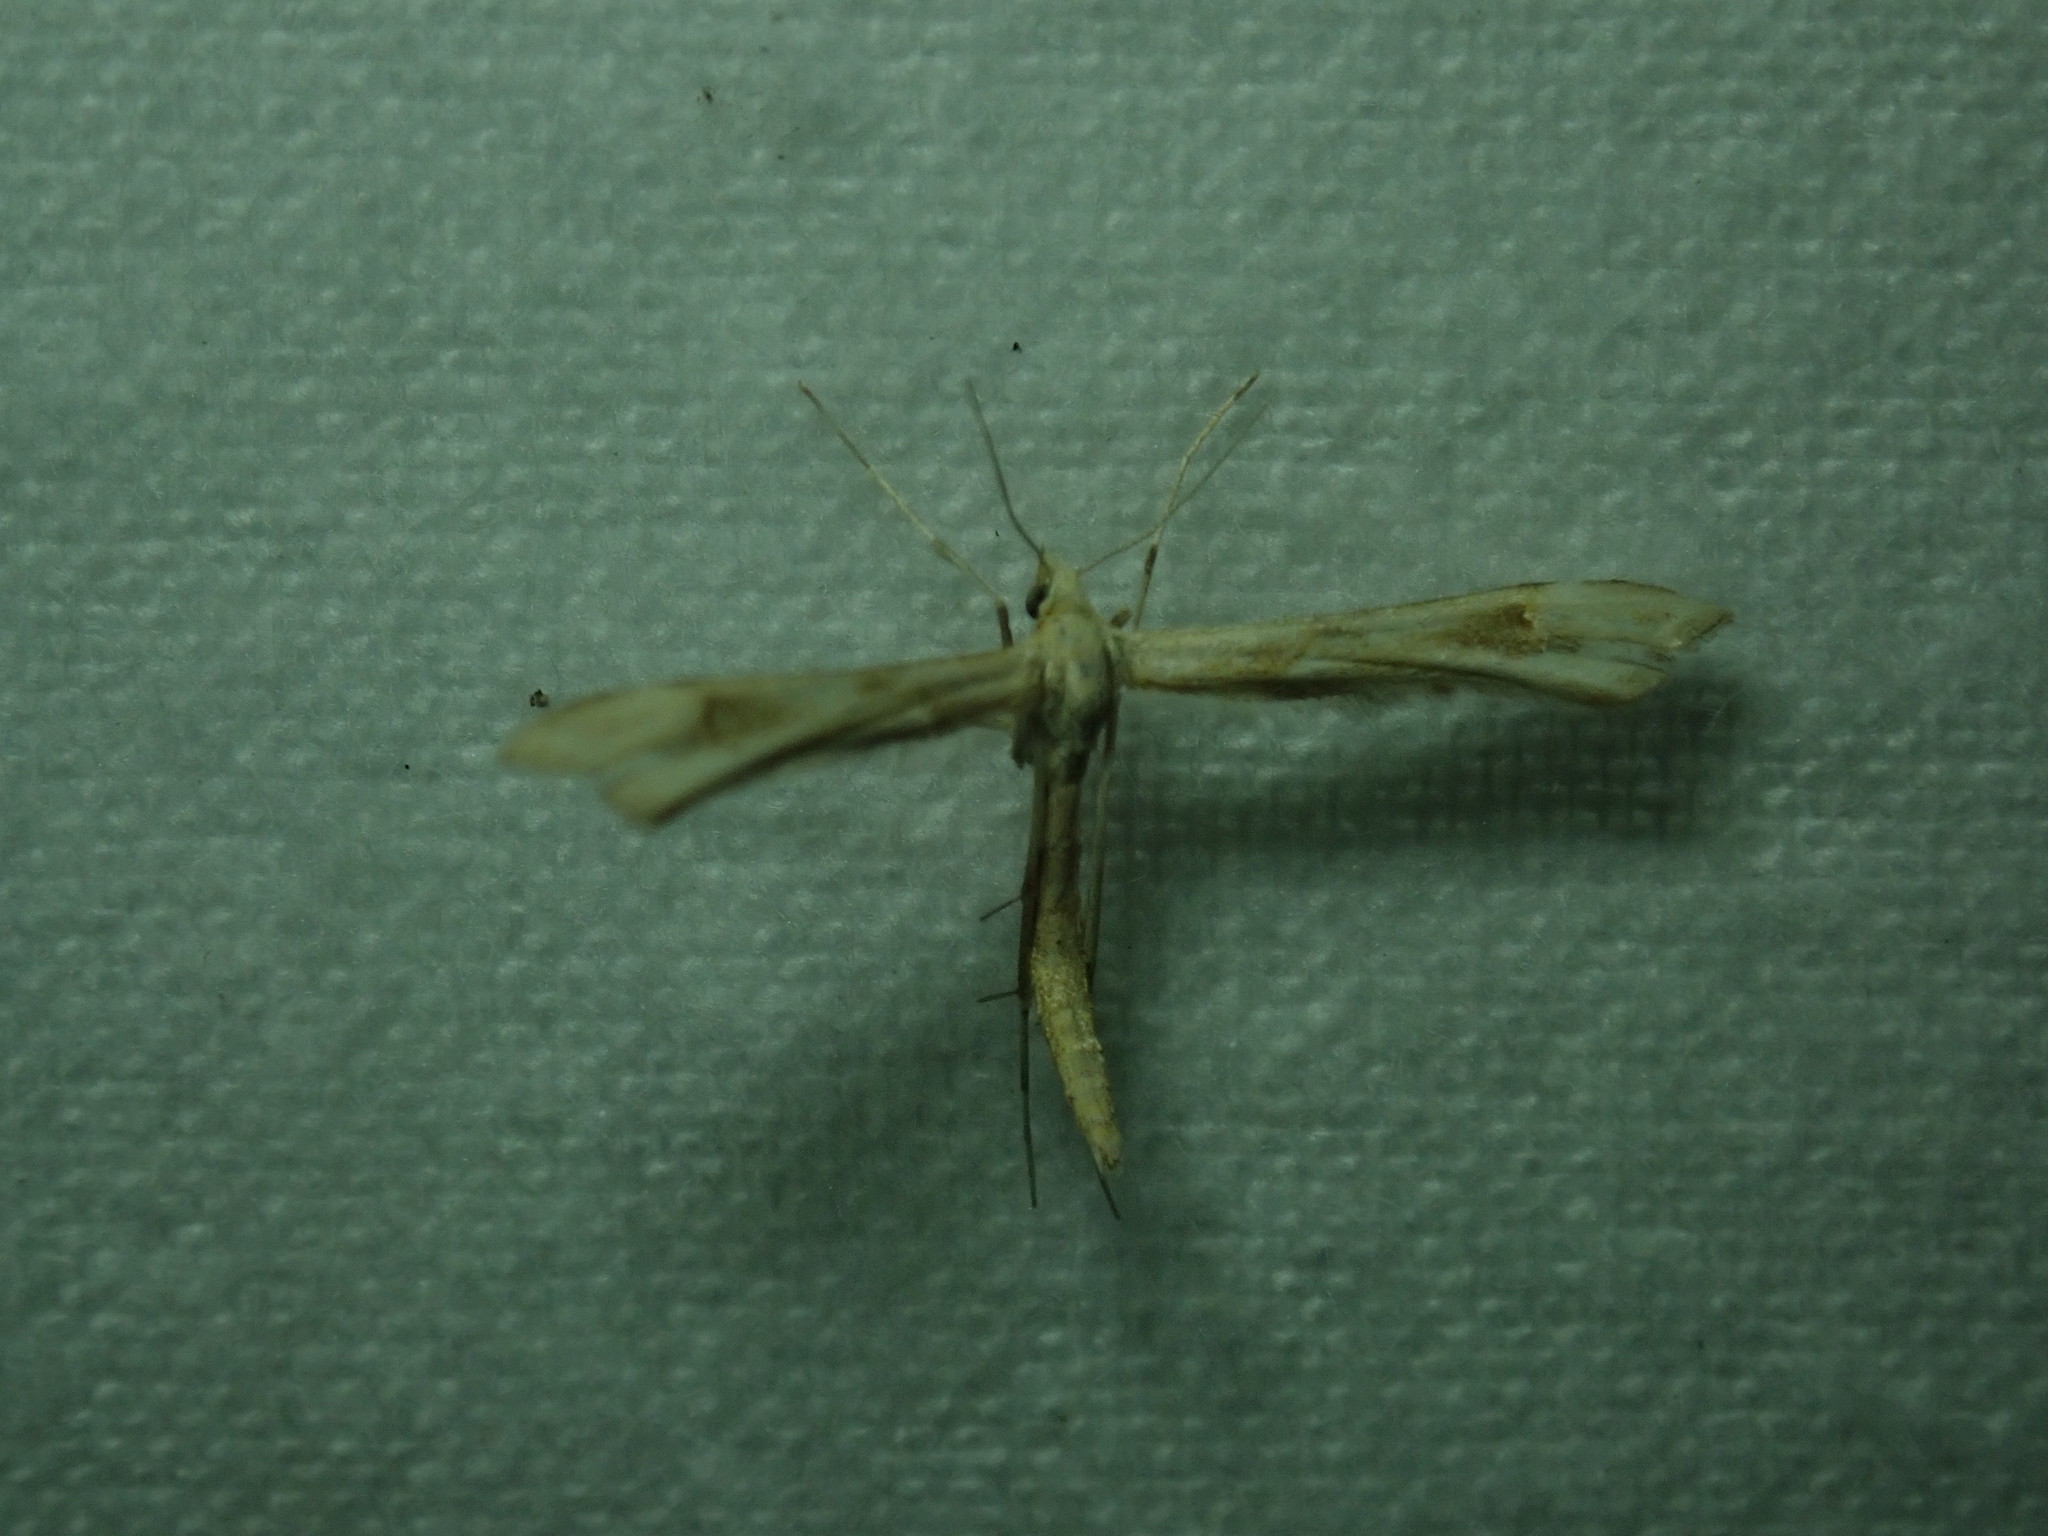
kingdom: Animalia
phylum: Arthropoda
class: Insecta
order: Lepidoptera
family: Pterophoridae
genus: Gillmeria
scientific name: Gillmeria pallidactyla
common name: Yarrow plume
